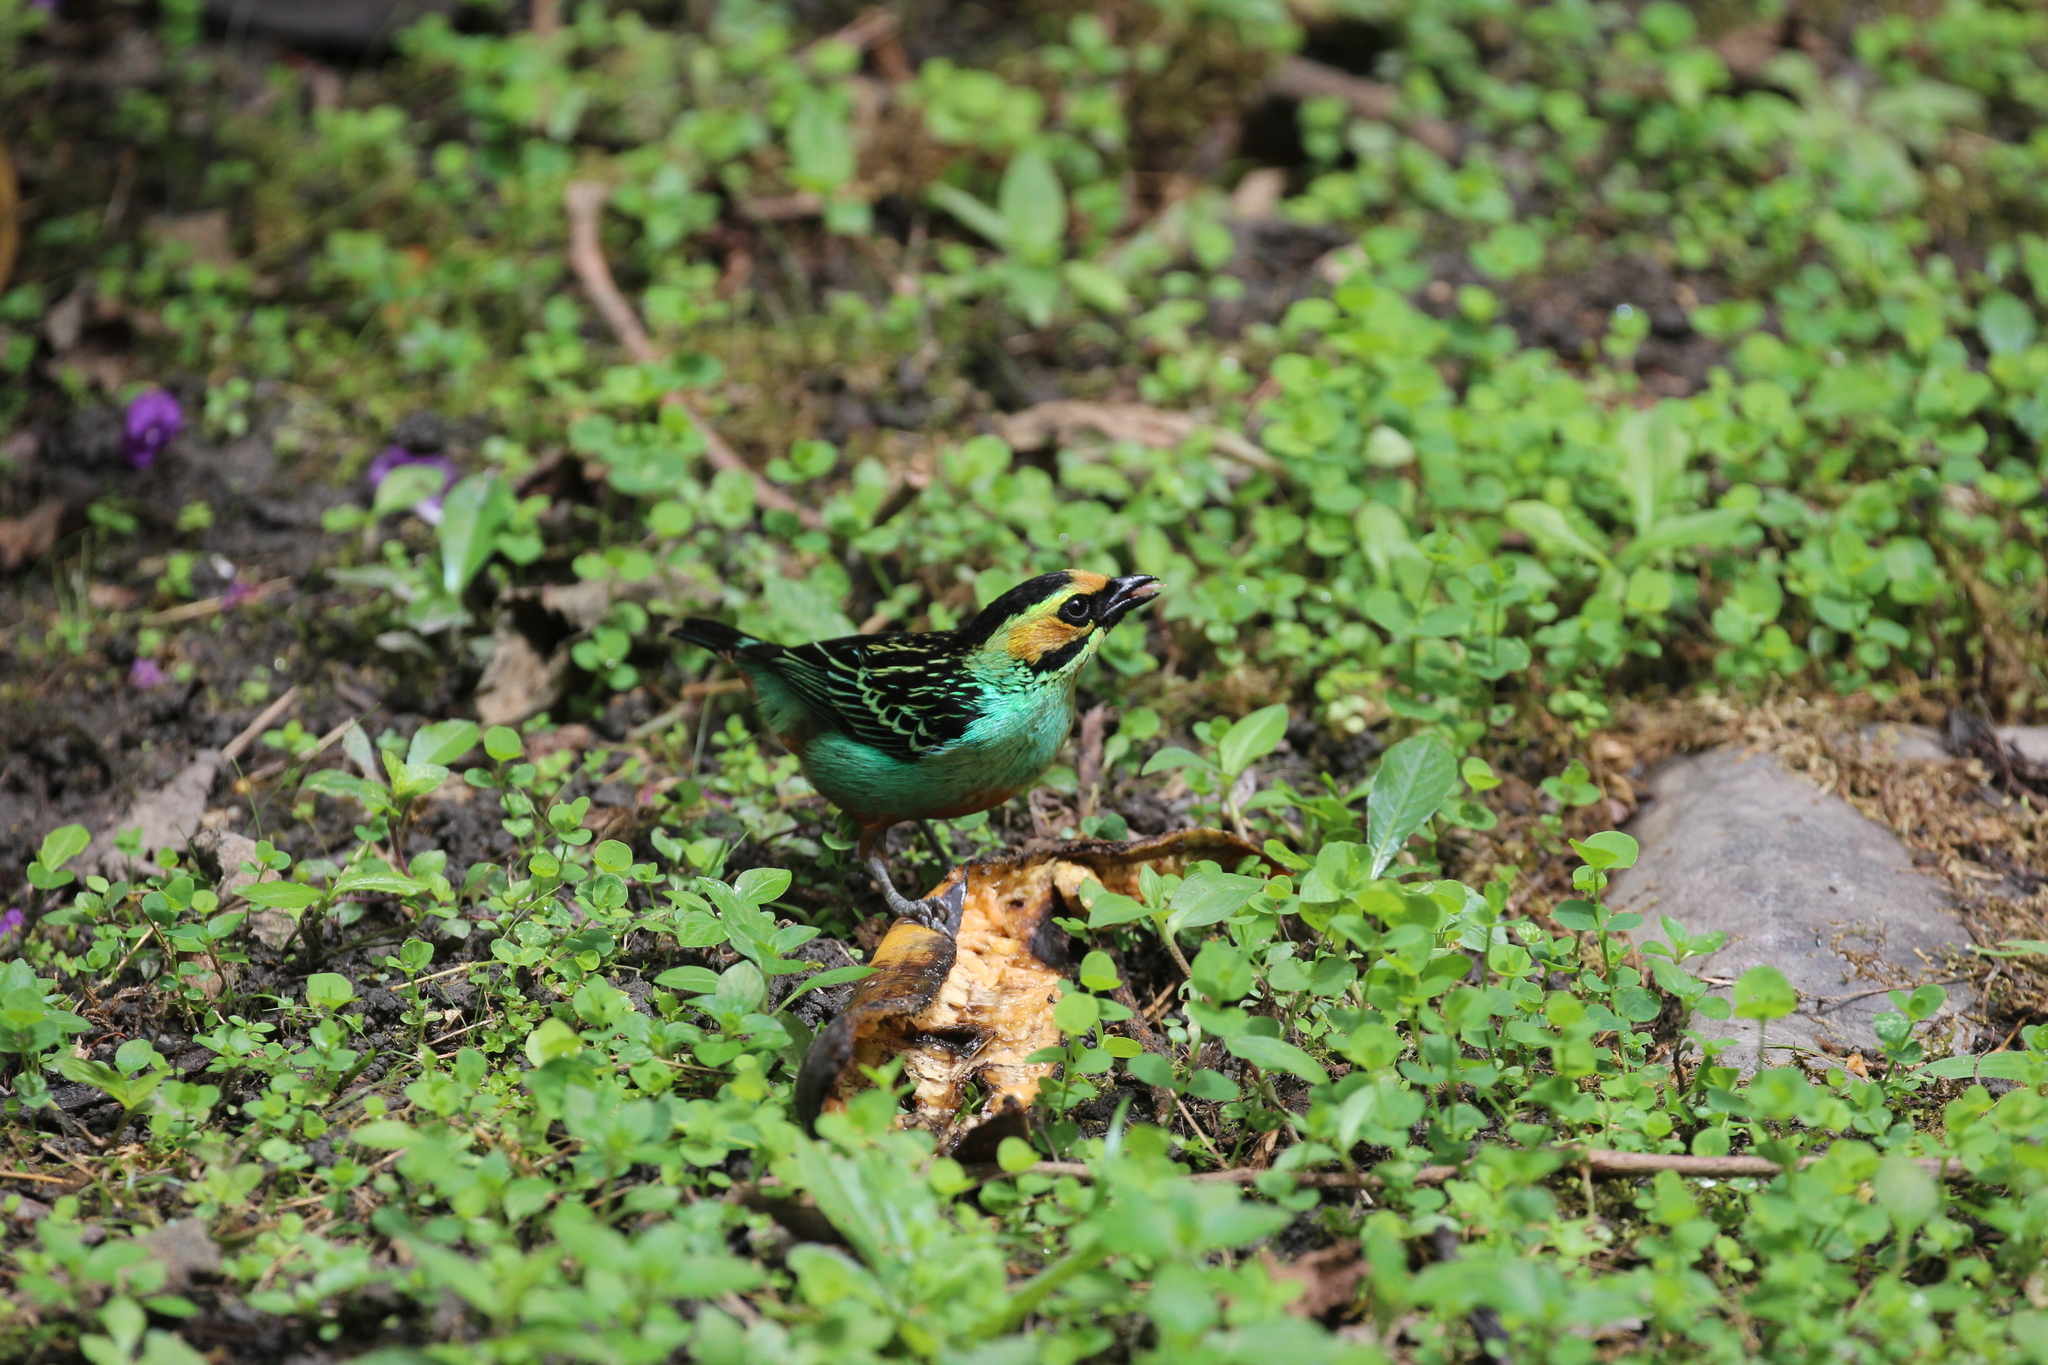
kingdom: Animalia
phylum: Chordata
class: Aves
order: Passeriformes
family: Thraupidae
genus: Tangara
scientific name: Tangara xanthocephala
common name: Saffron-crowned tanager
